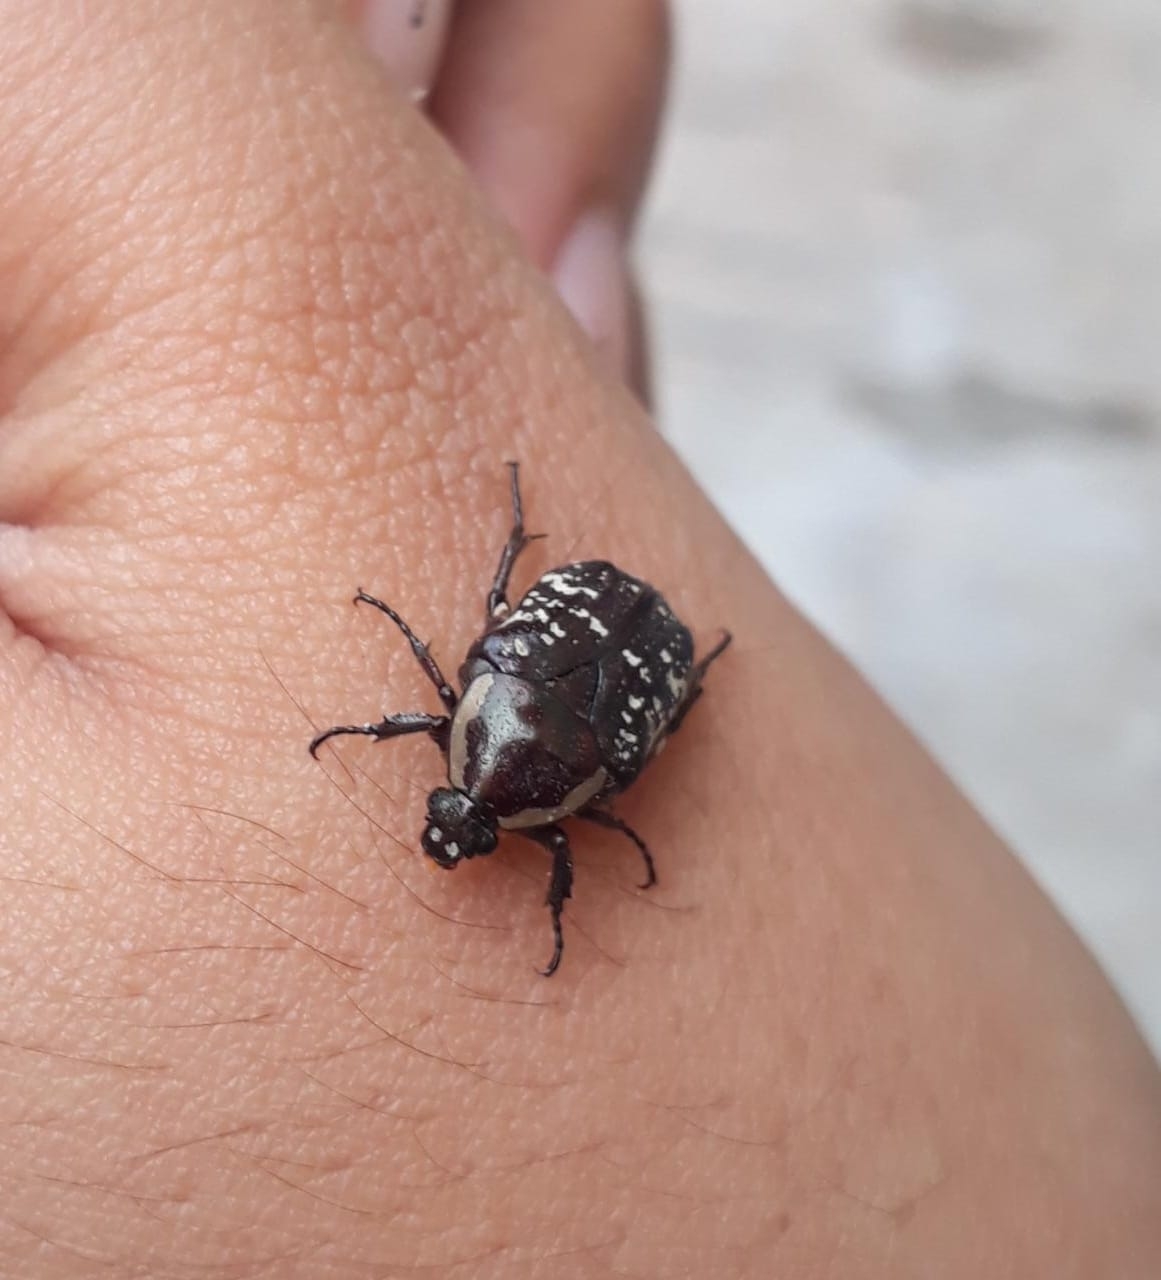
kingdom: Animalia
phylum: Arthropoda
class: Insecta
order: Coleoptera
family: Scarabaeidae
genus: Euphoria
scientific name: Euphoria yucateca
